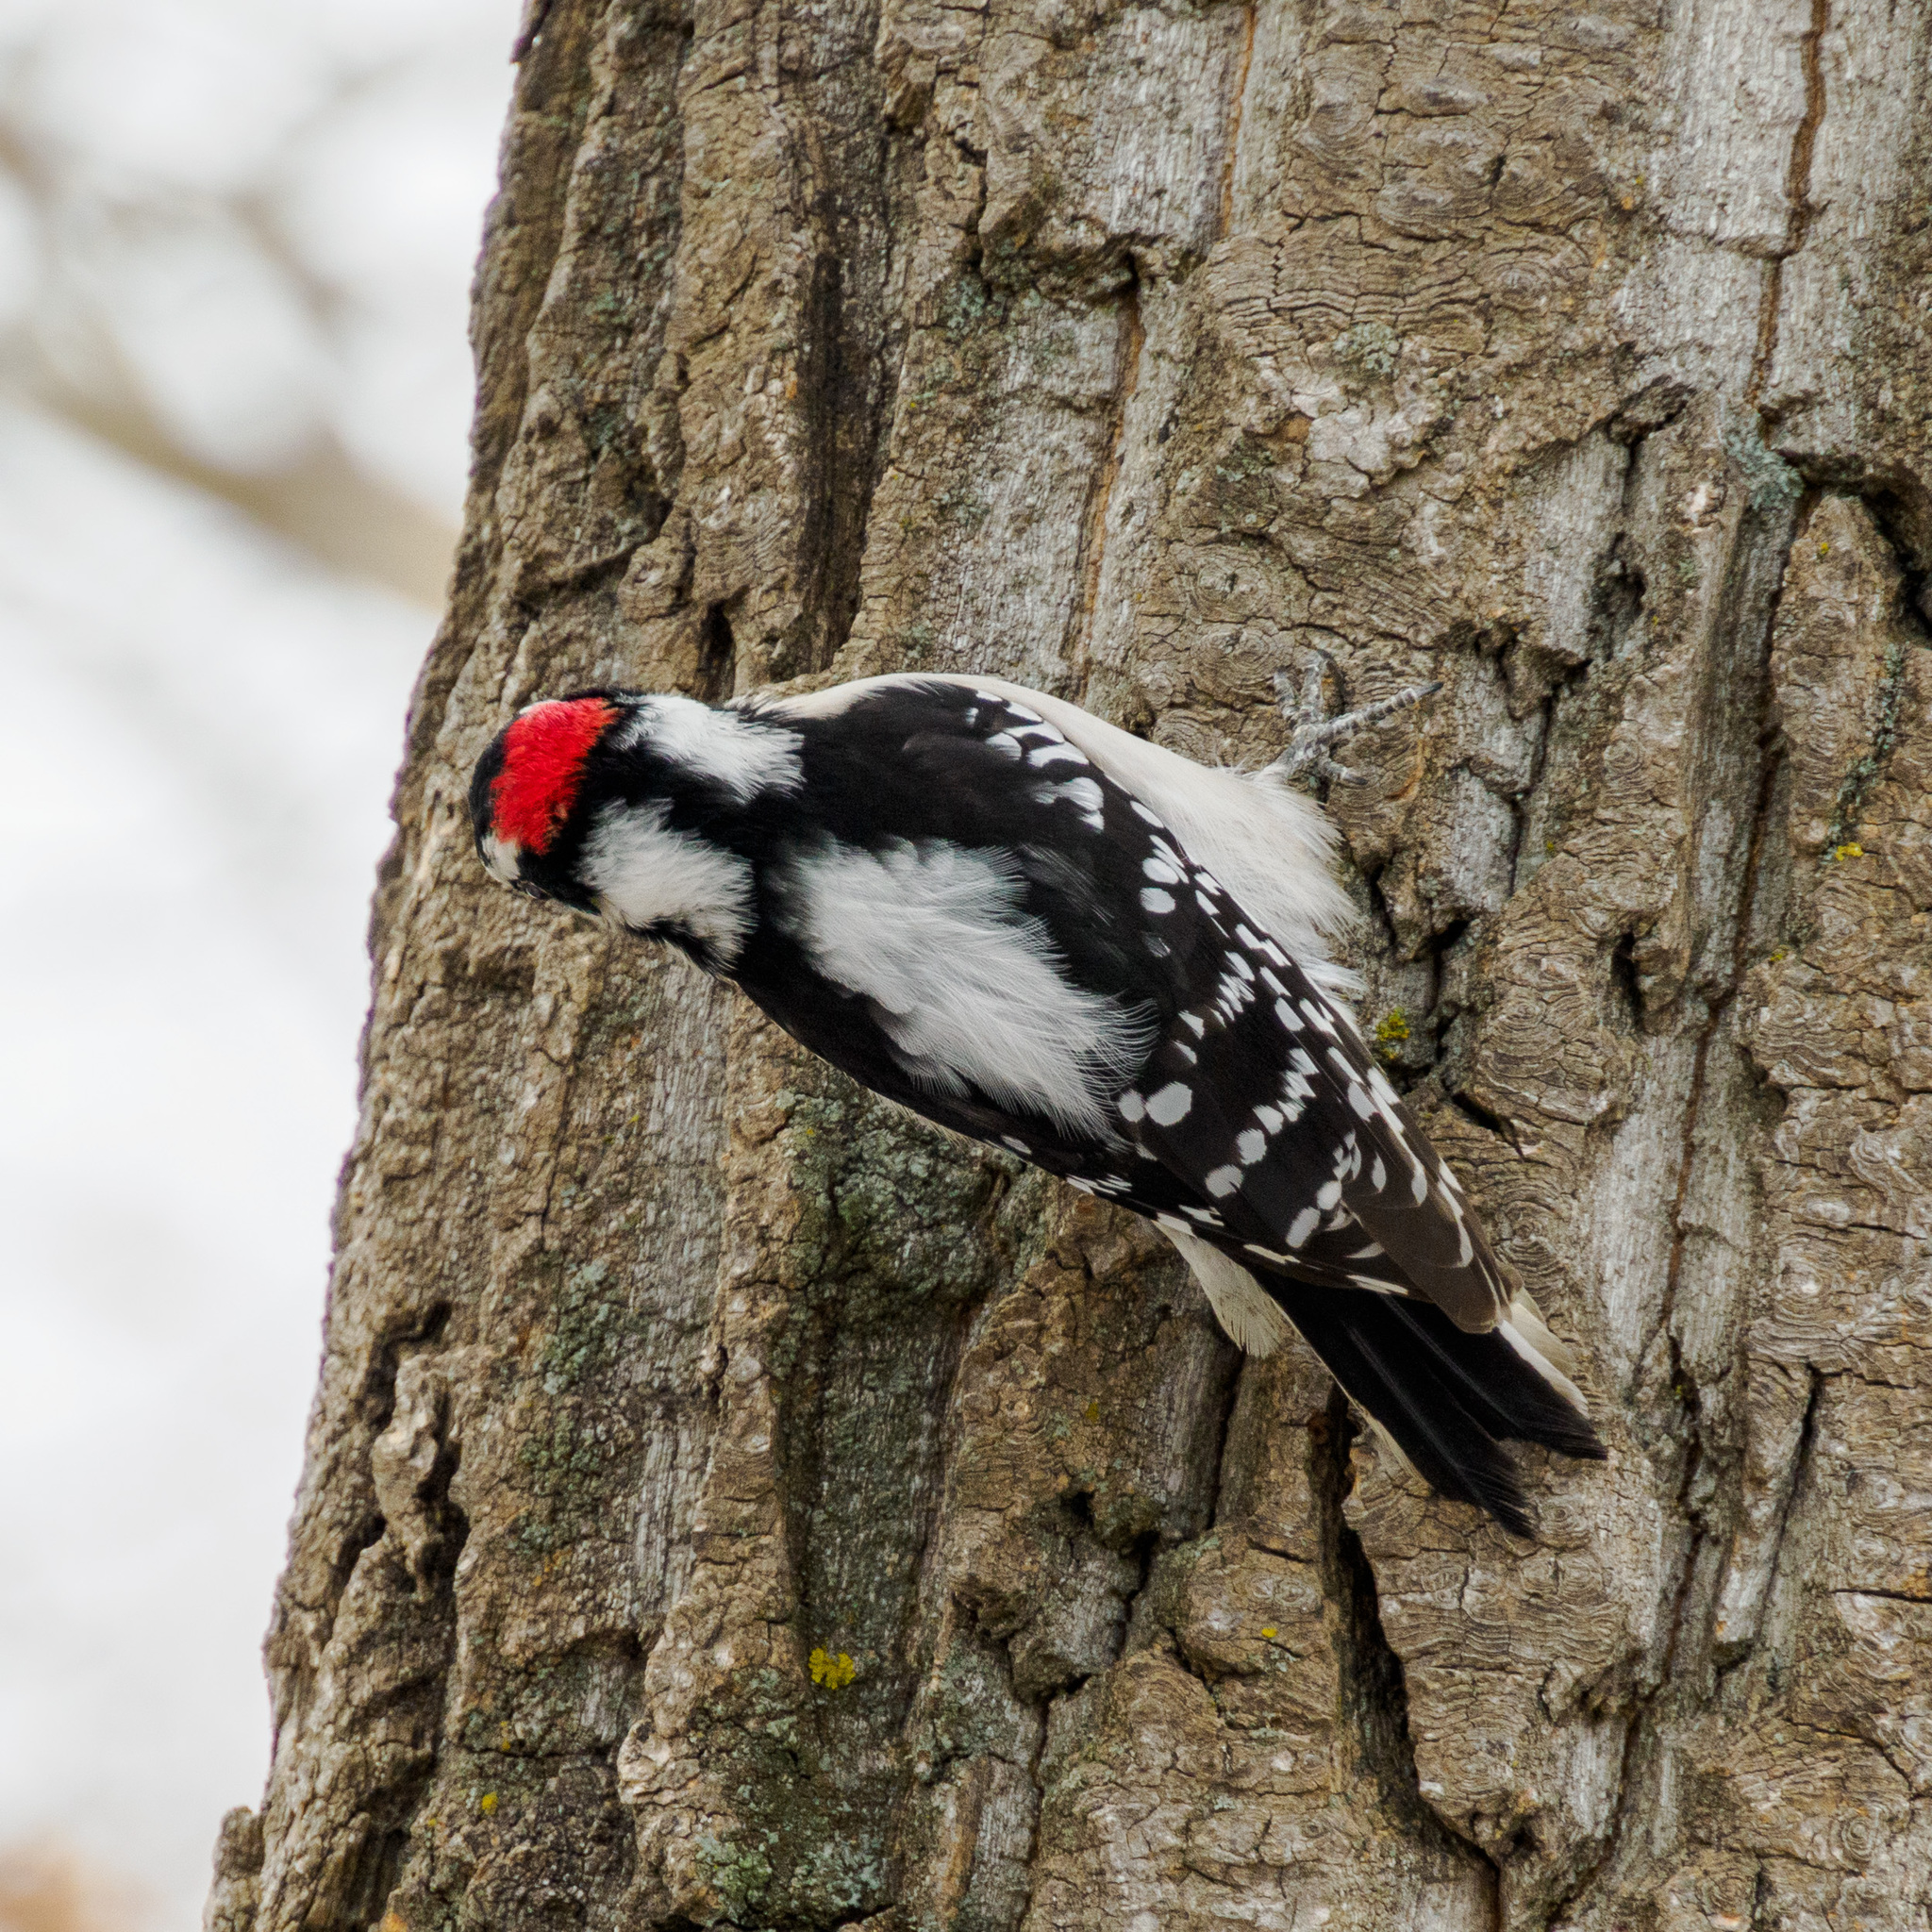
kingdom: Animalia
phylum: Chordata
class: Aves
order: Piciformes
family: Picidae
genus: Dryobates
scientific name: Dryobates pubescens
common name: Downy woodpecker
